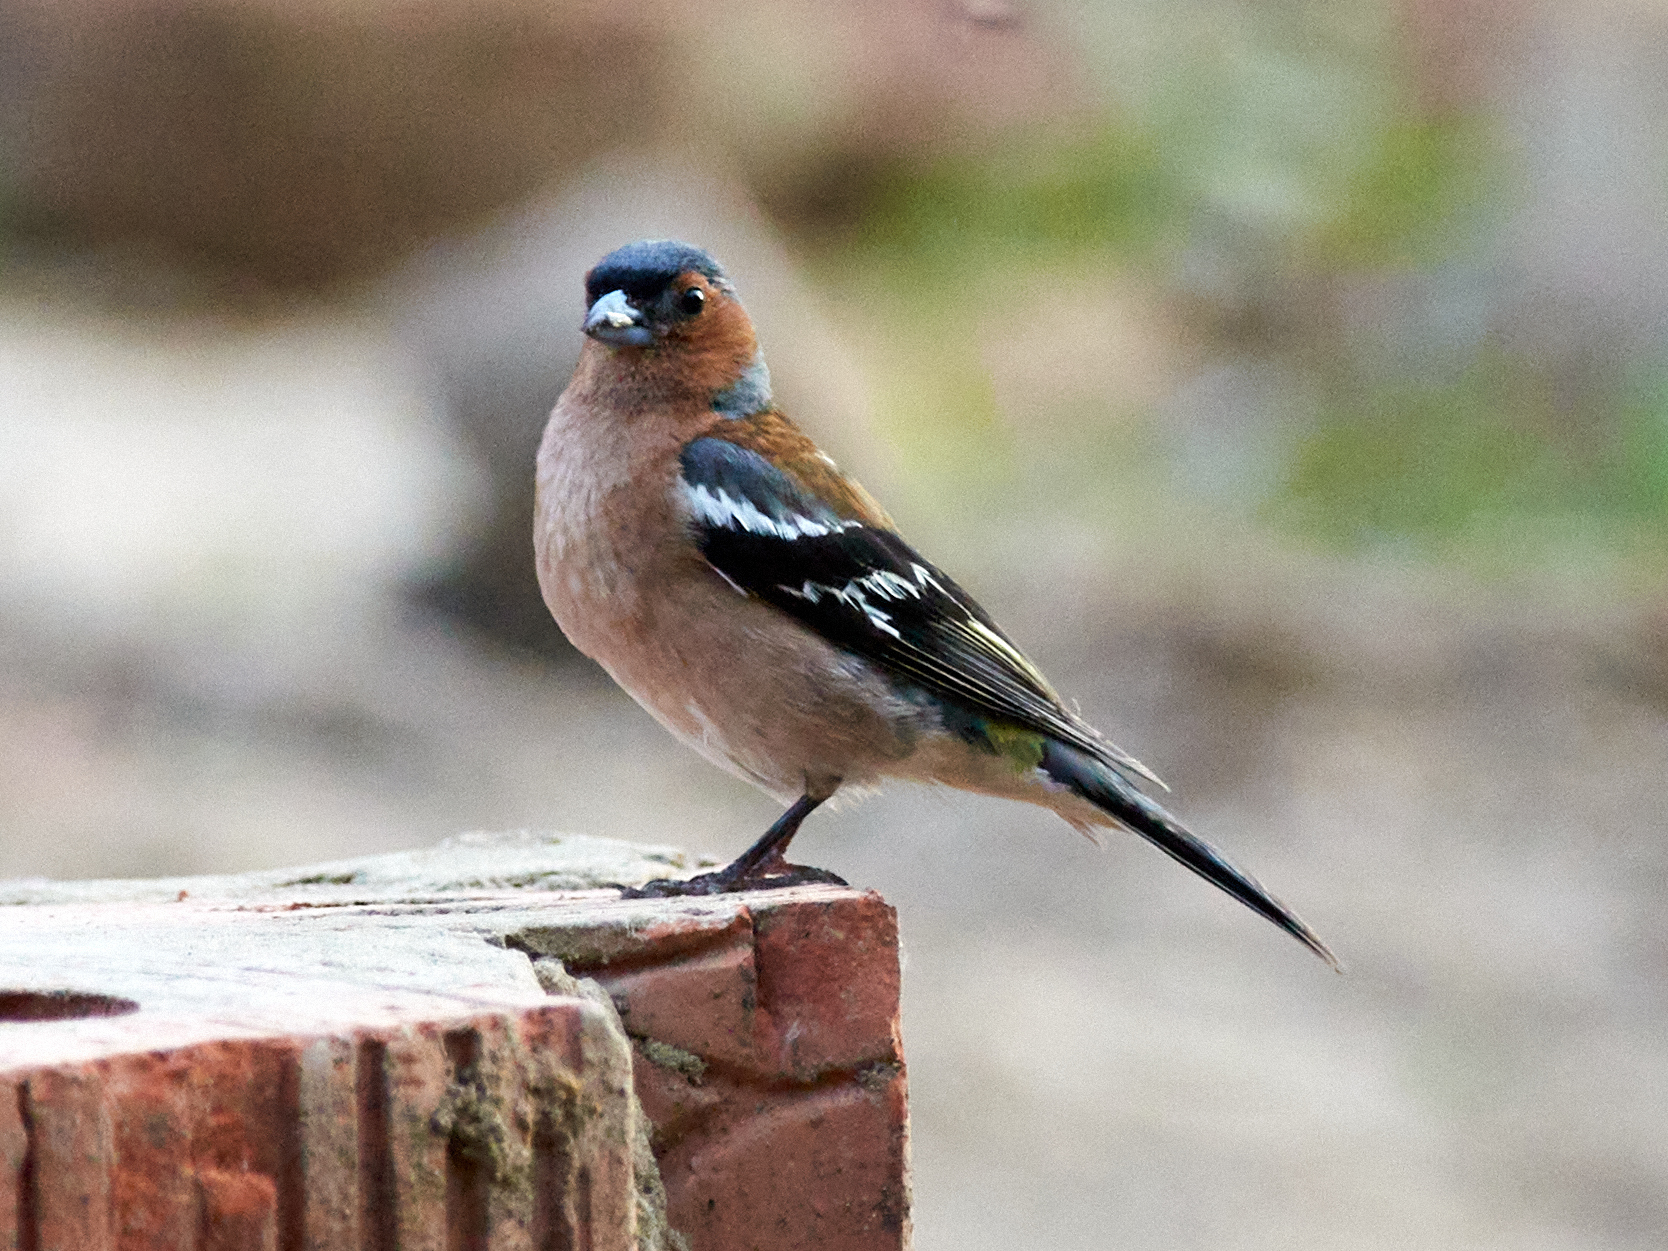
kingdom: Animalia
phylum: Chordata
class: Aves
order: Passeriformes
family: Fringillidae
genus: Fringilla
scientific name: Fringilla coelebs
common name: Common chaffinch
